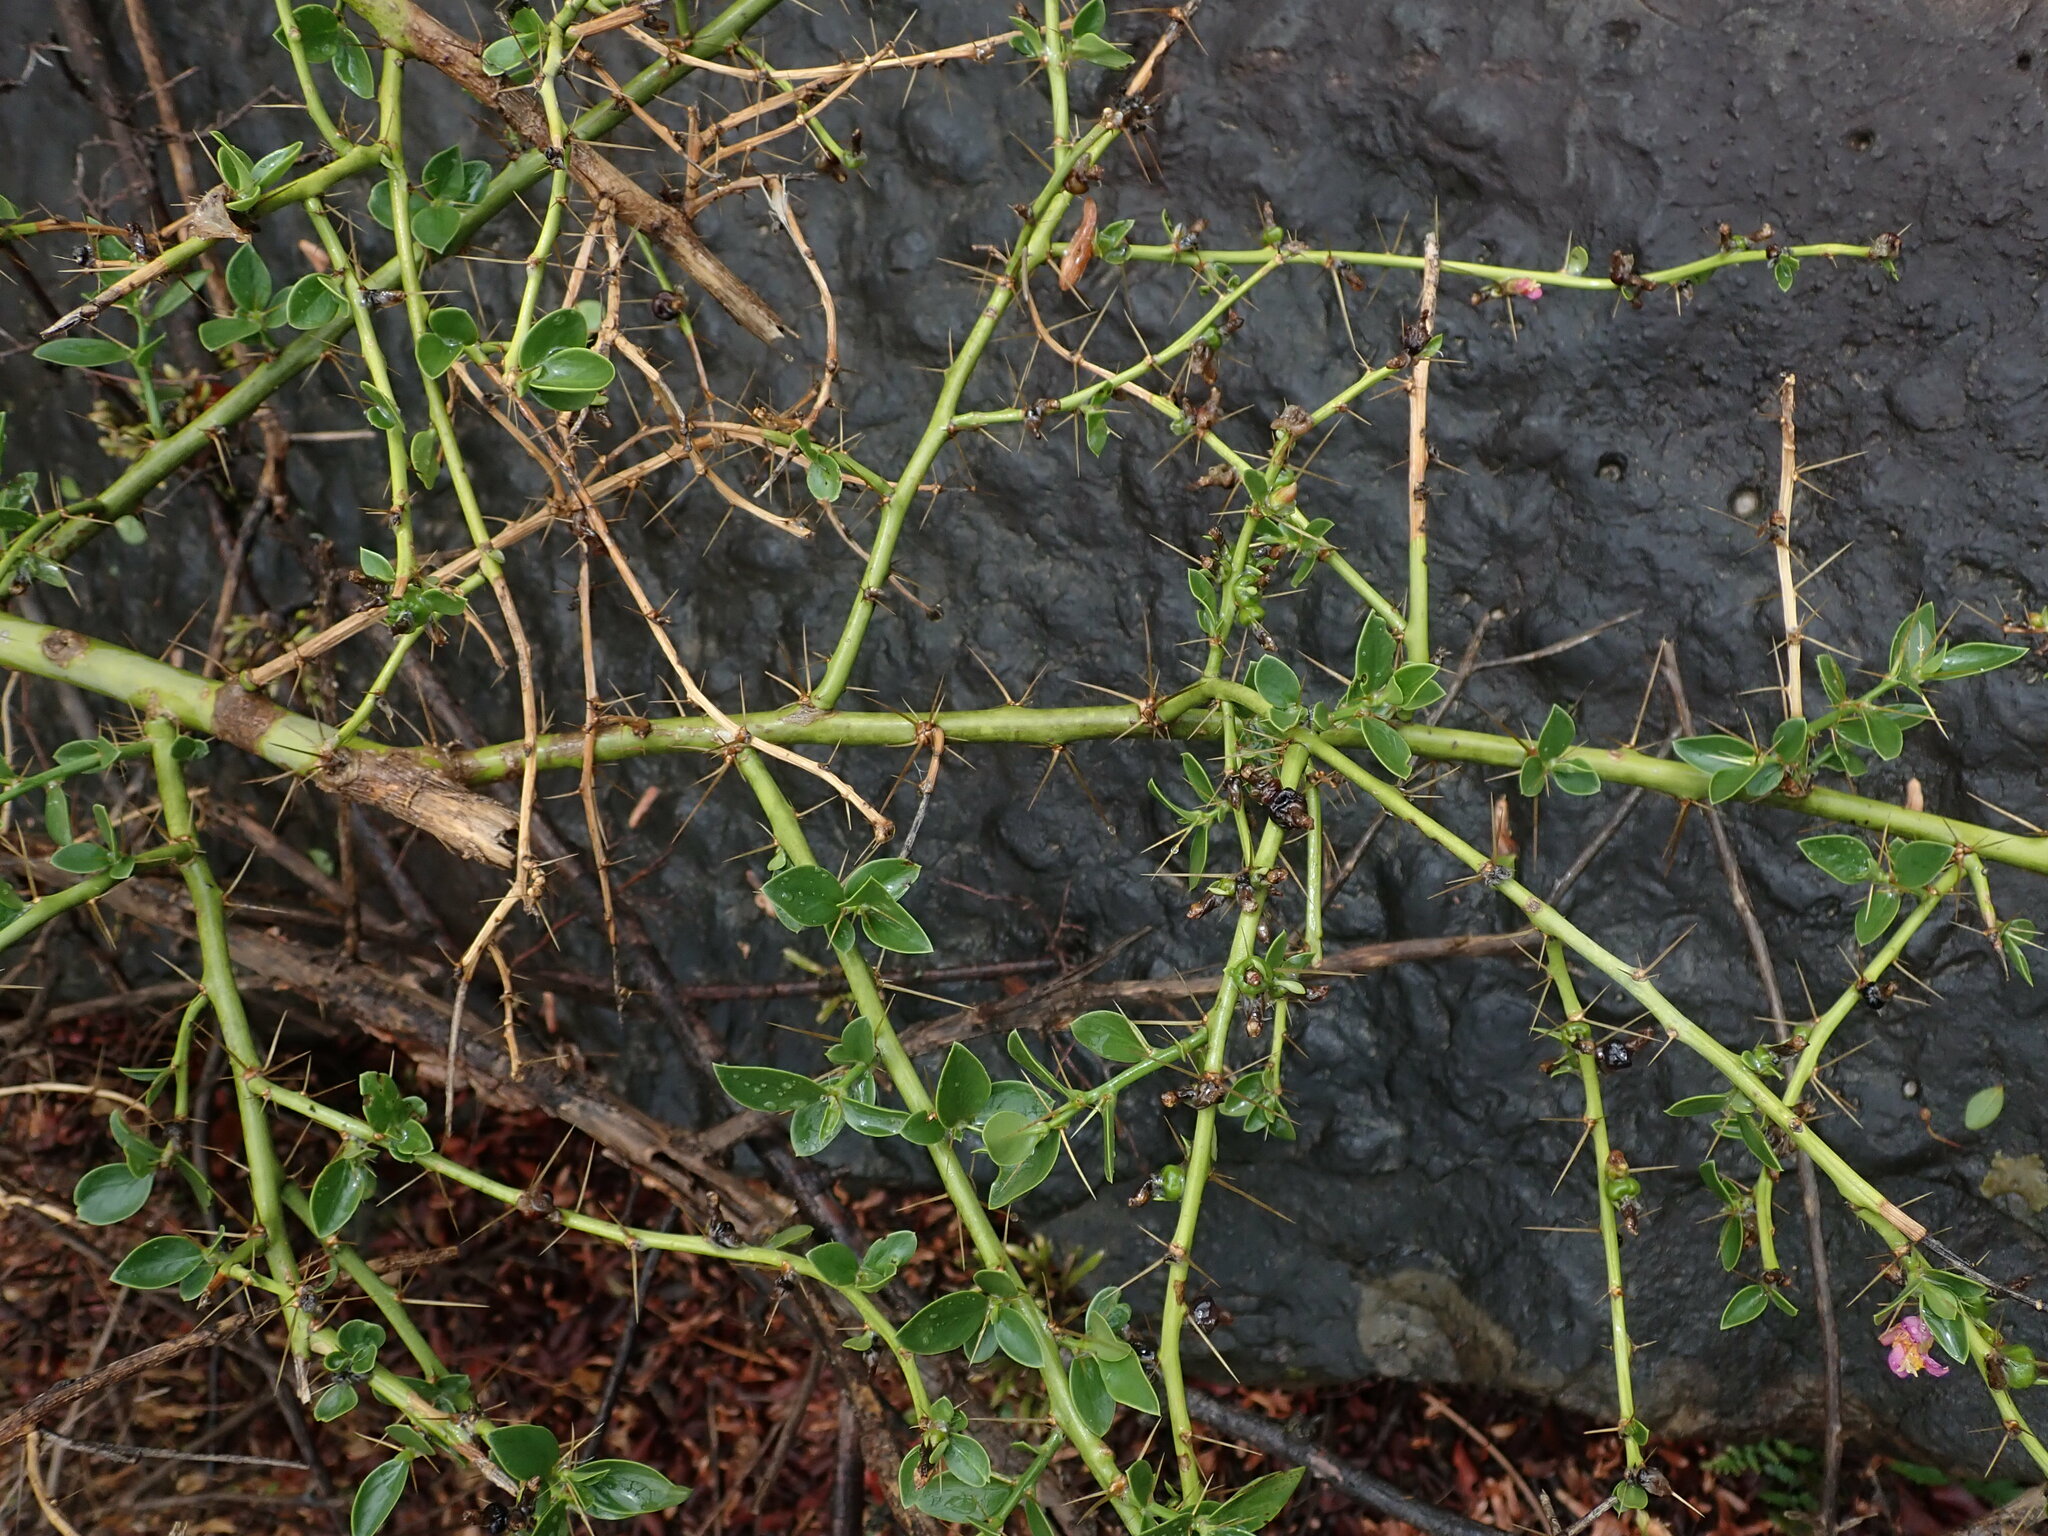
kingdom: Plantae
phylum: Tracheophyta
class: Magnoliopsida
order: Caryophyllales
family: Cactaceae
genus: Pereskia
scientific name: Pereskia diaz-romeroana
